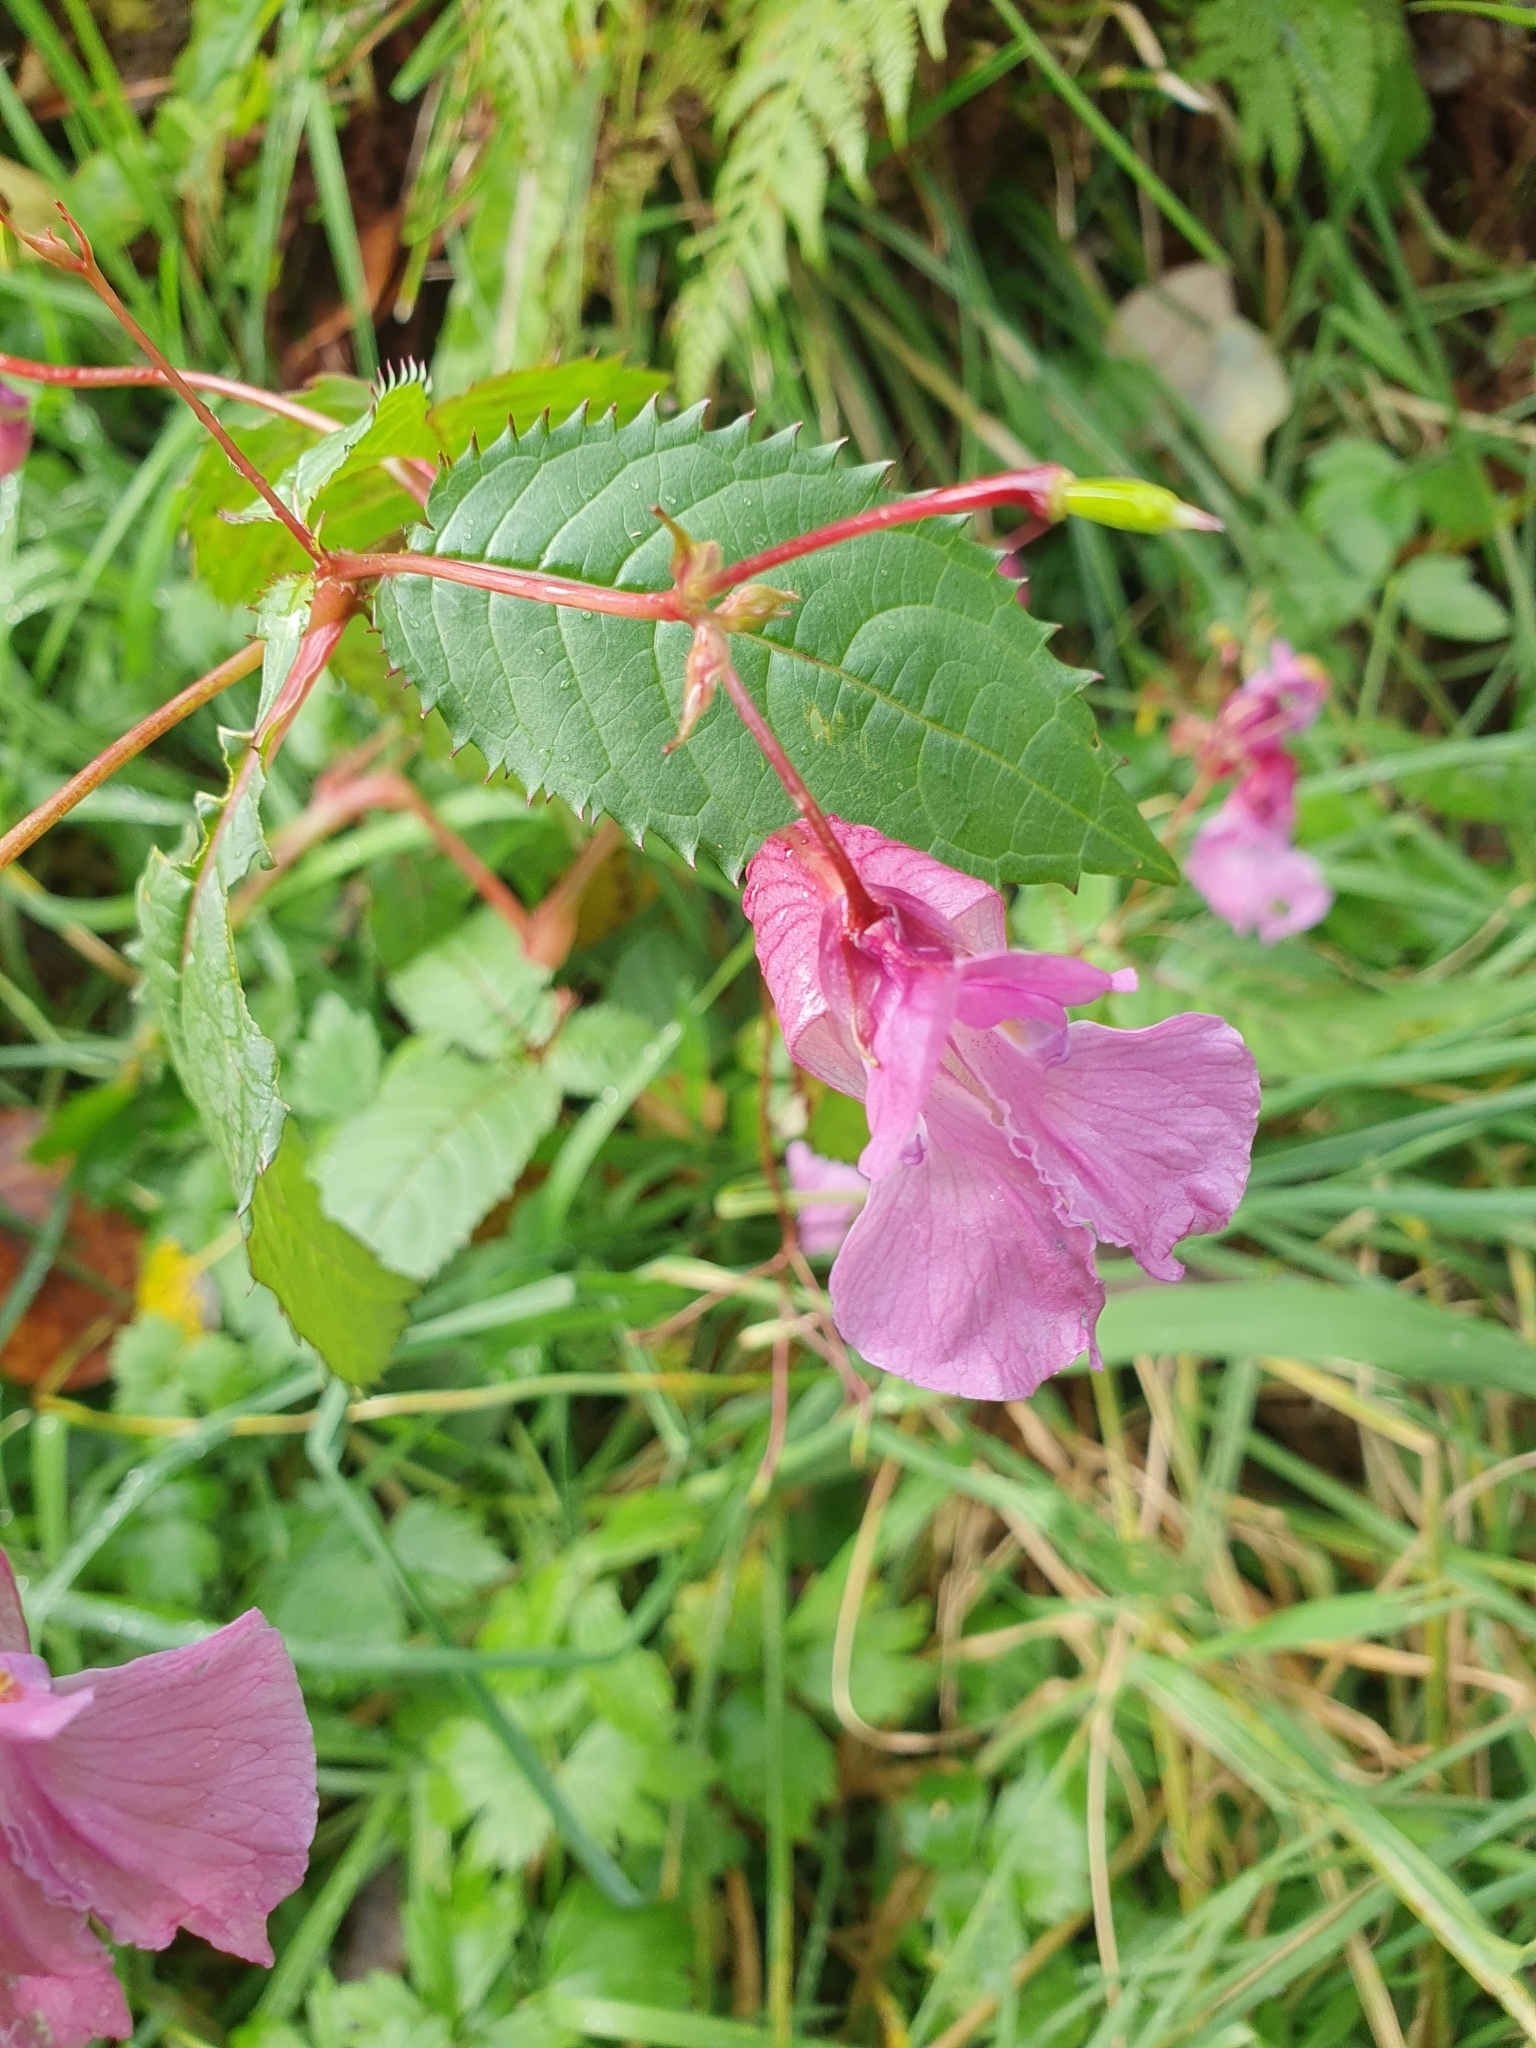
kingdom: Plantae
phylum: Tracheophyta
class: Magnoliopsida
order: Ericales
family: Balsaminaceae
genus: Impatiens
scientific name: Impatiens glandulifera
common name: Himalayan balsam
